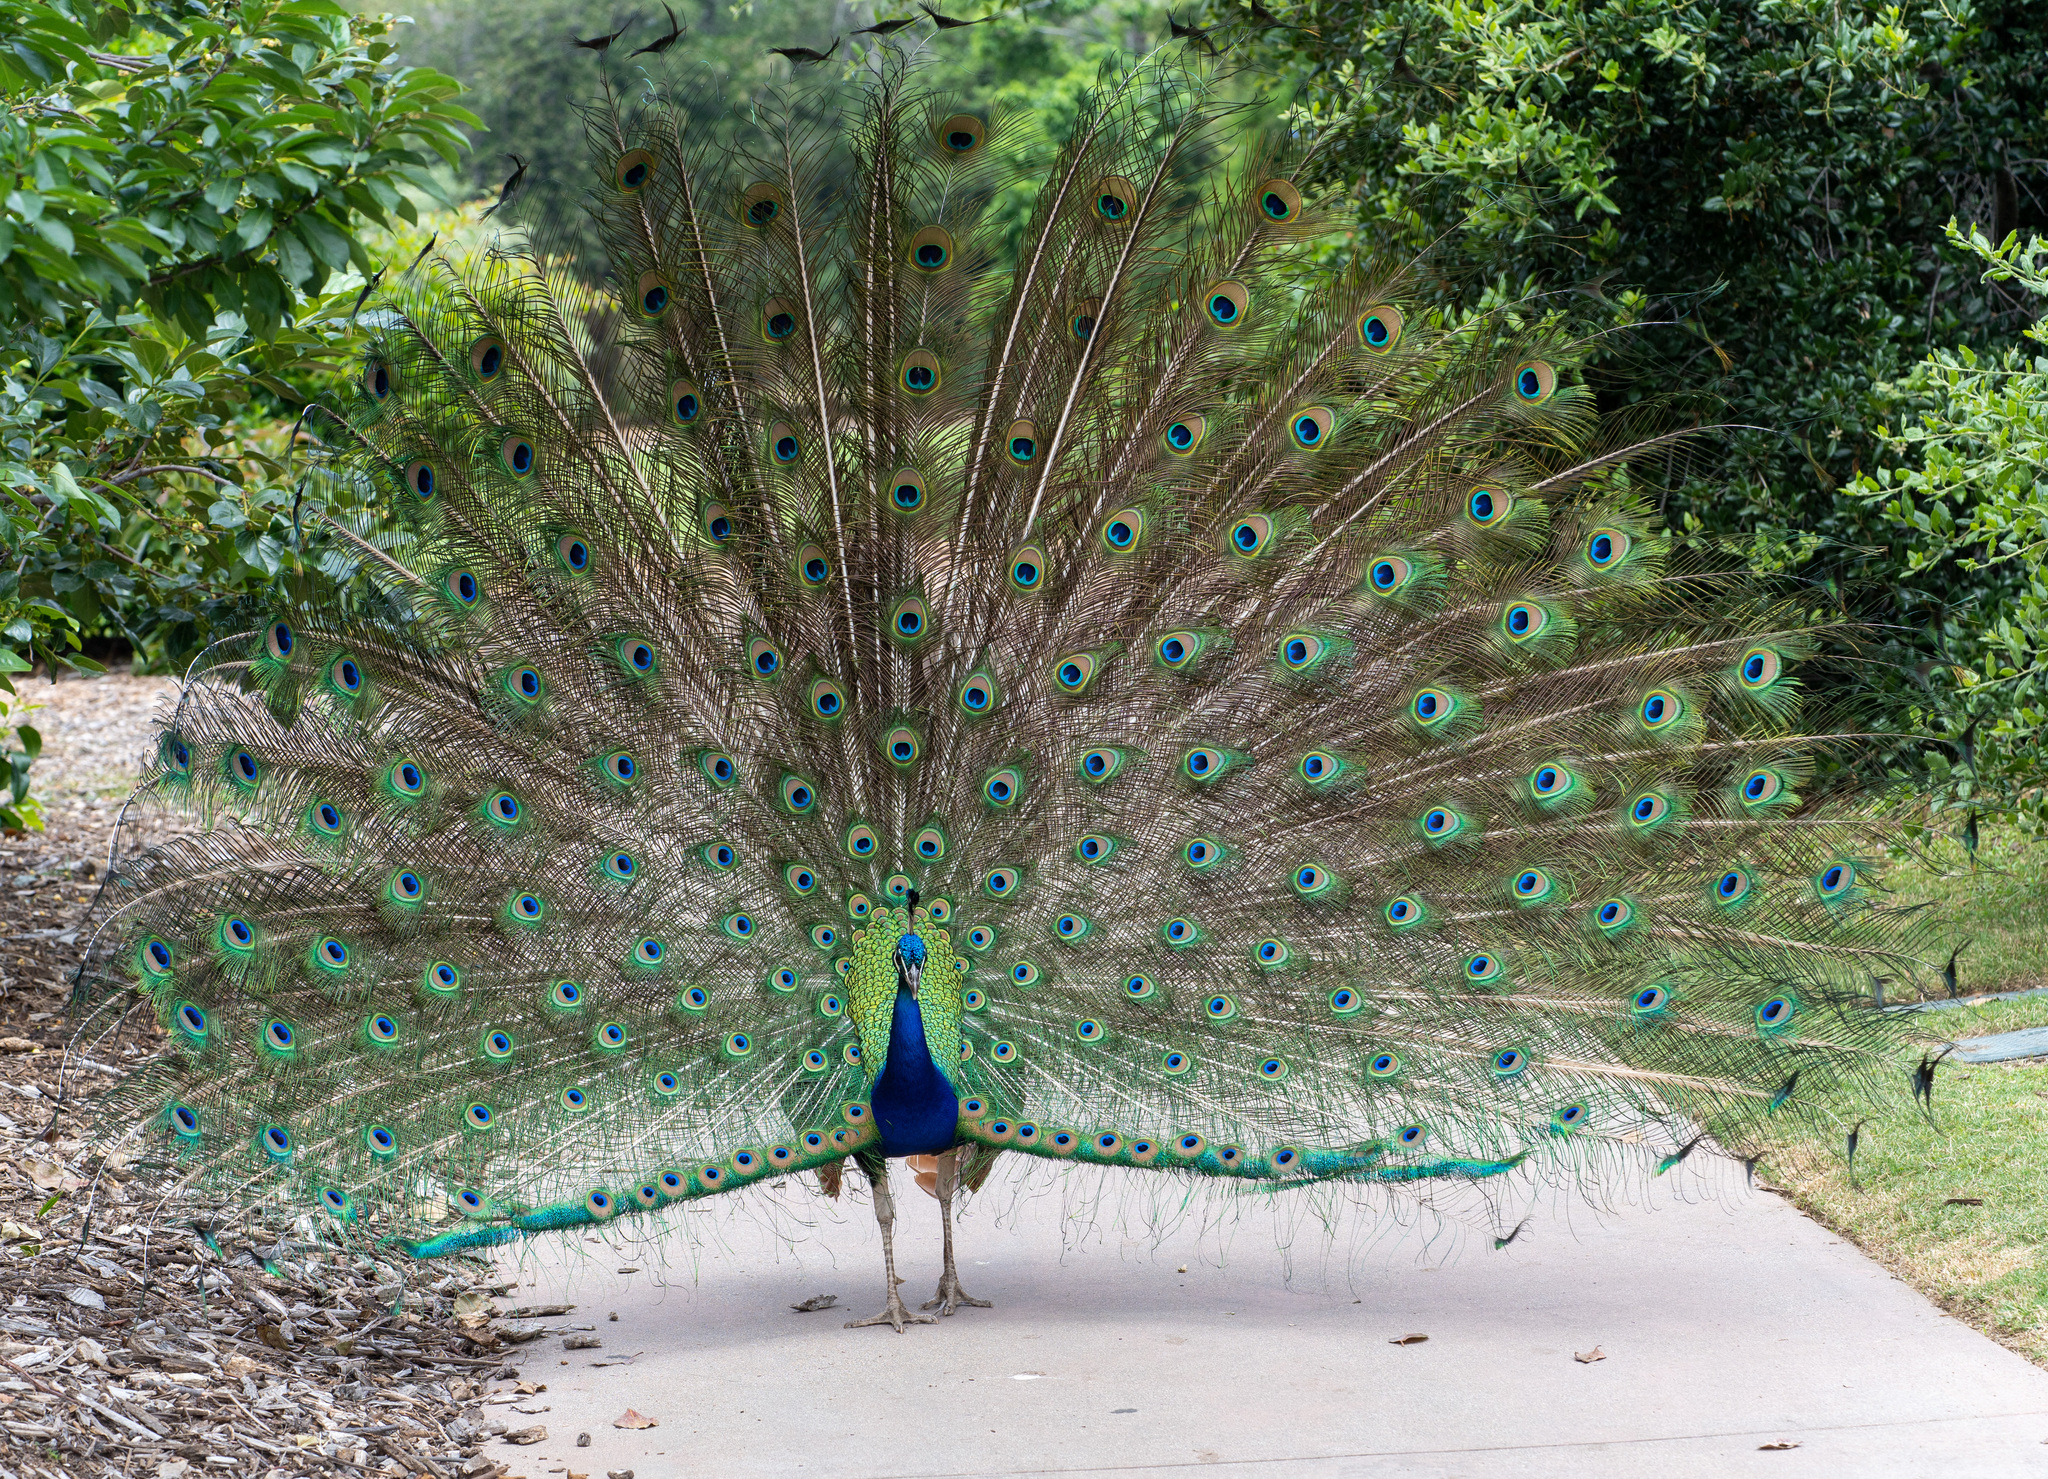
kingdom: Animalia
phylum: Chordata
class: Aves
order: Galliformes
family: Phasianidae
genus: Pavo
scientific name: Pavo cristatus
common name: Indian peafowl
